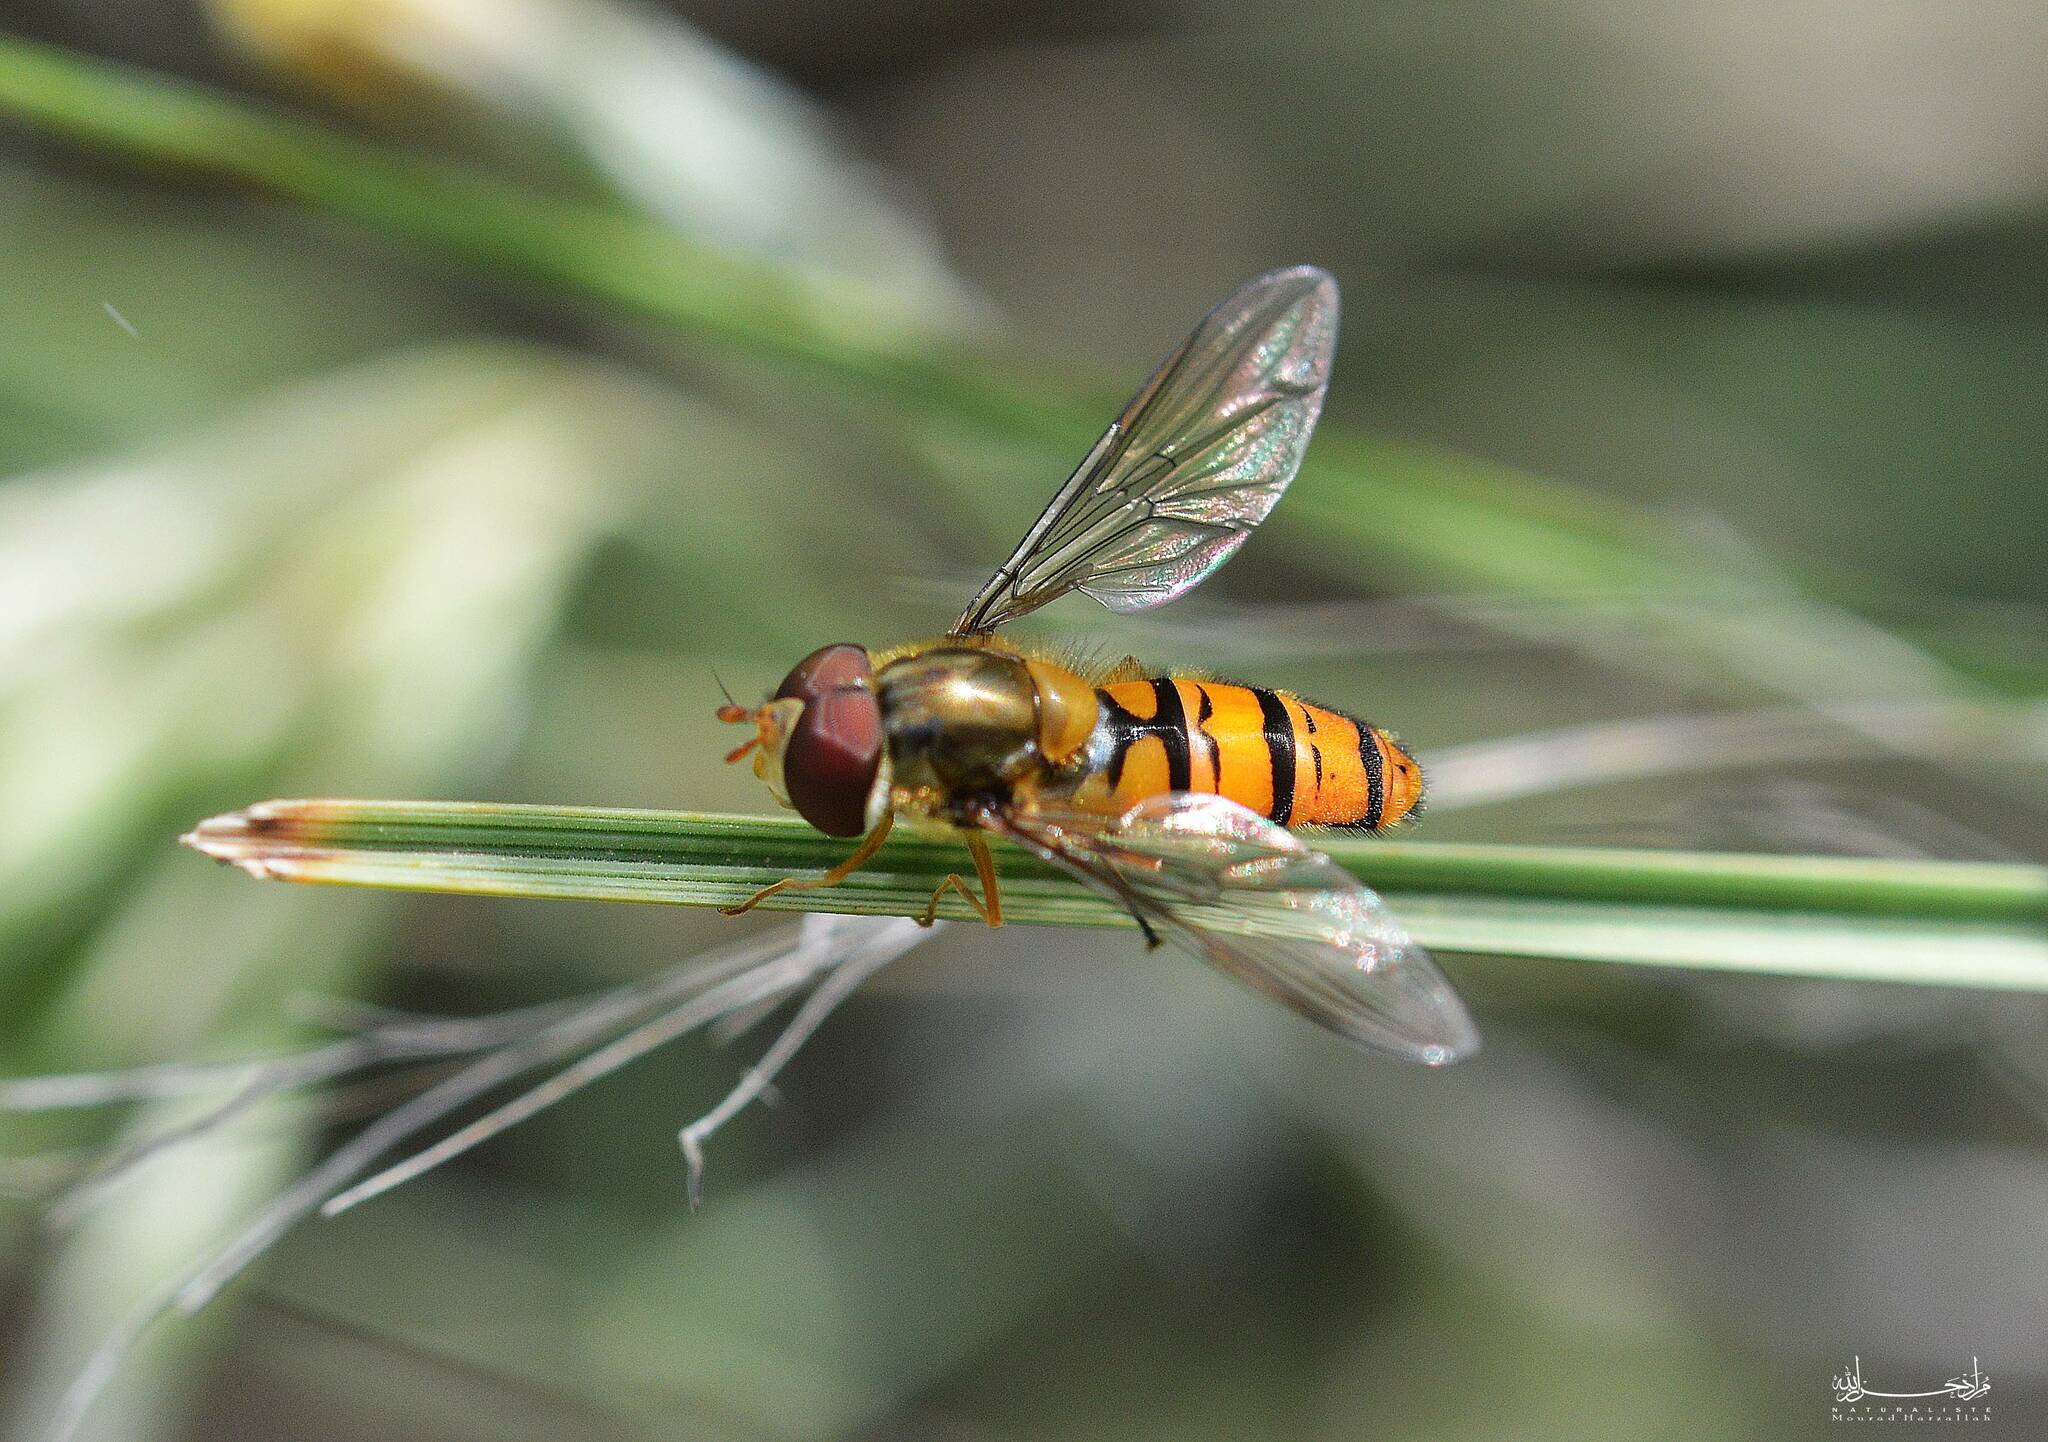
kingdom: Animalia
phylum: Arthropoda
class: Insecta
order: Diptera
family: Syrphidae
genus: Episyrphus
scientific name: Episyrphus balteatus
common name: Marmalade hoverfly
